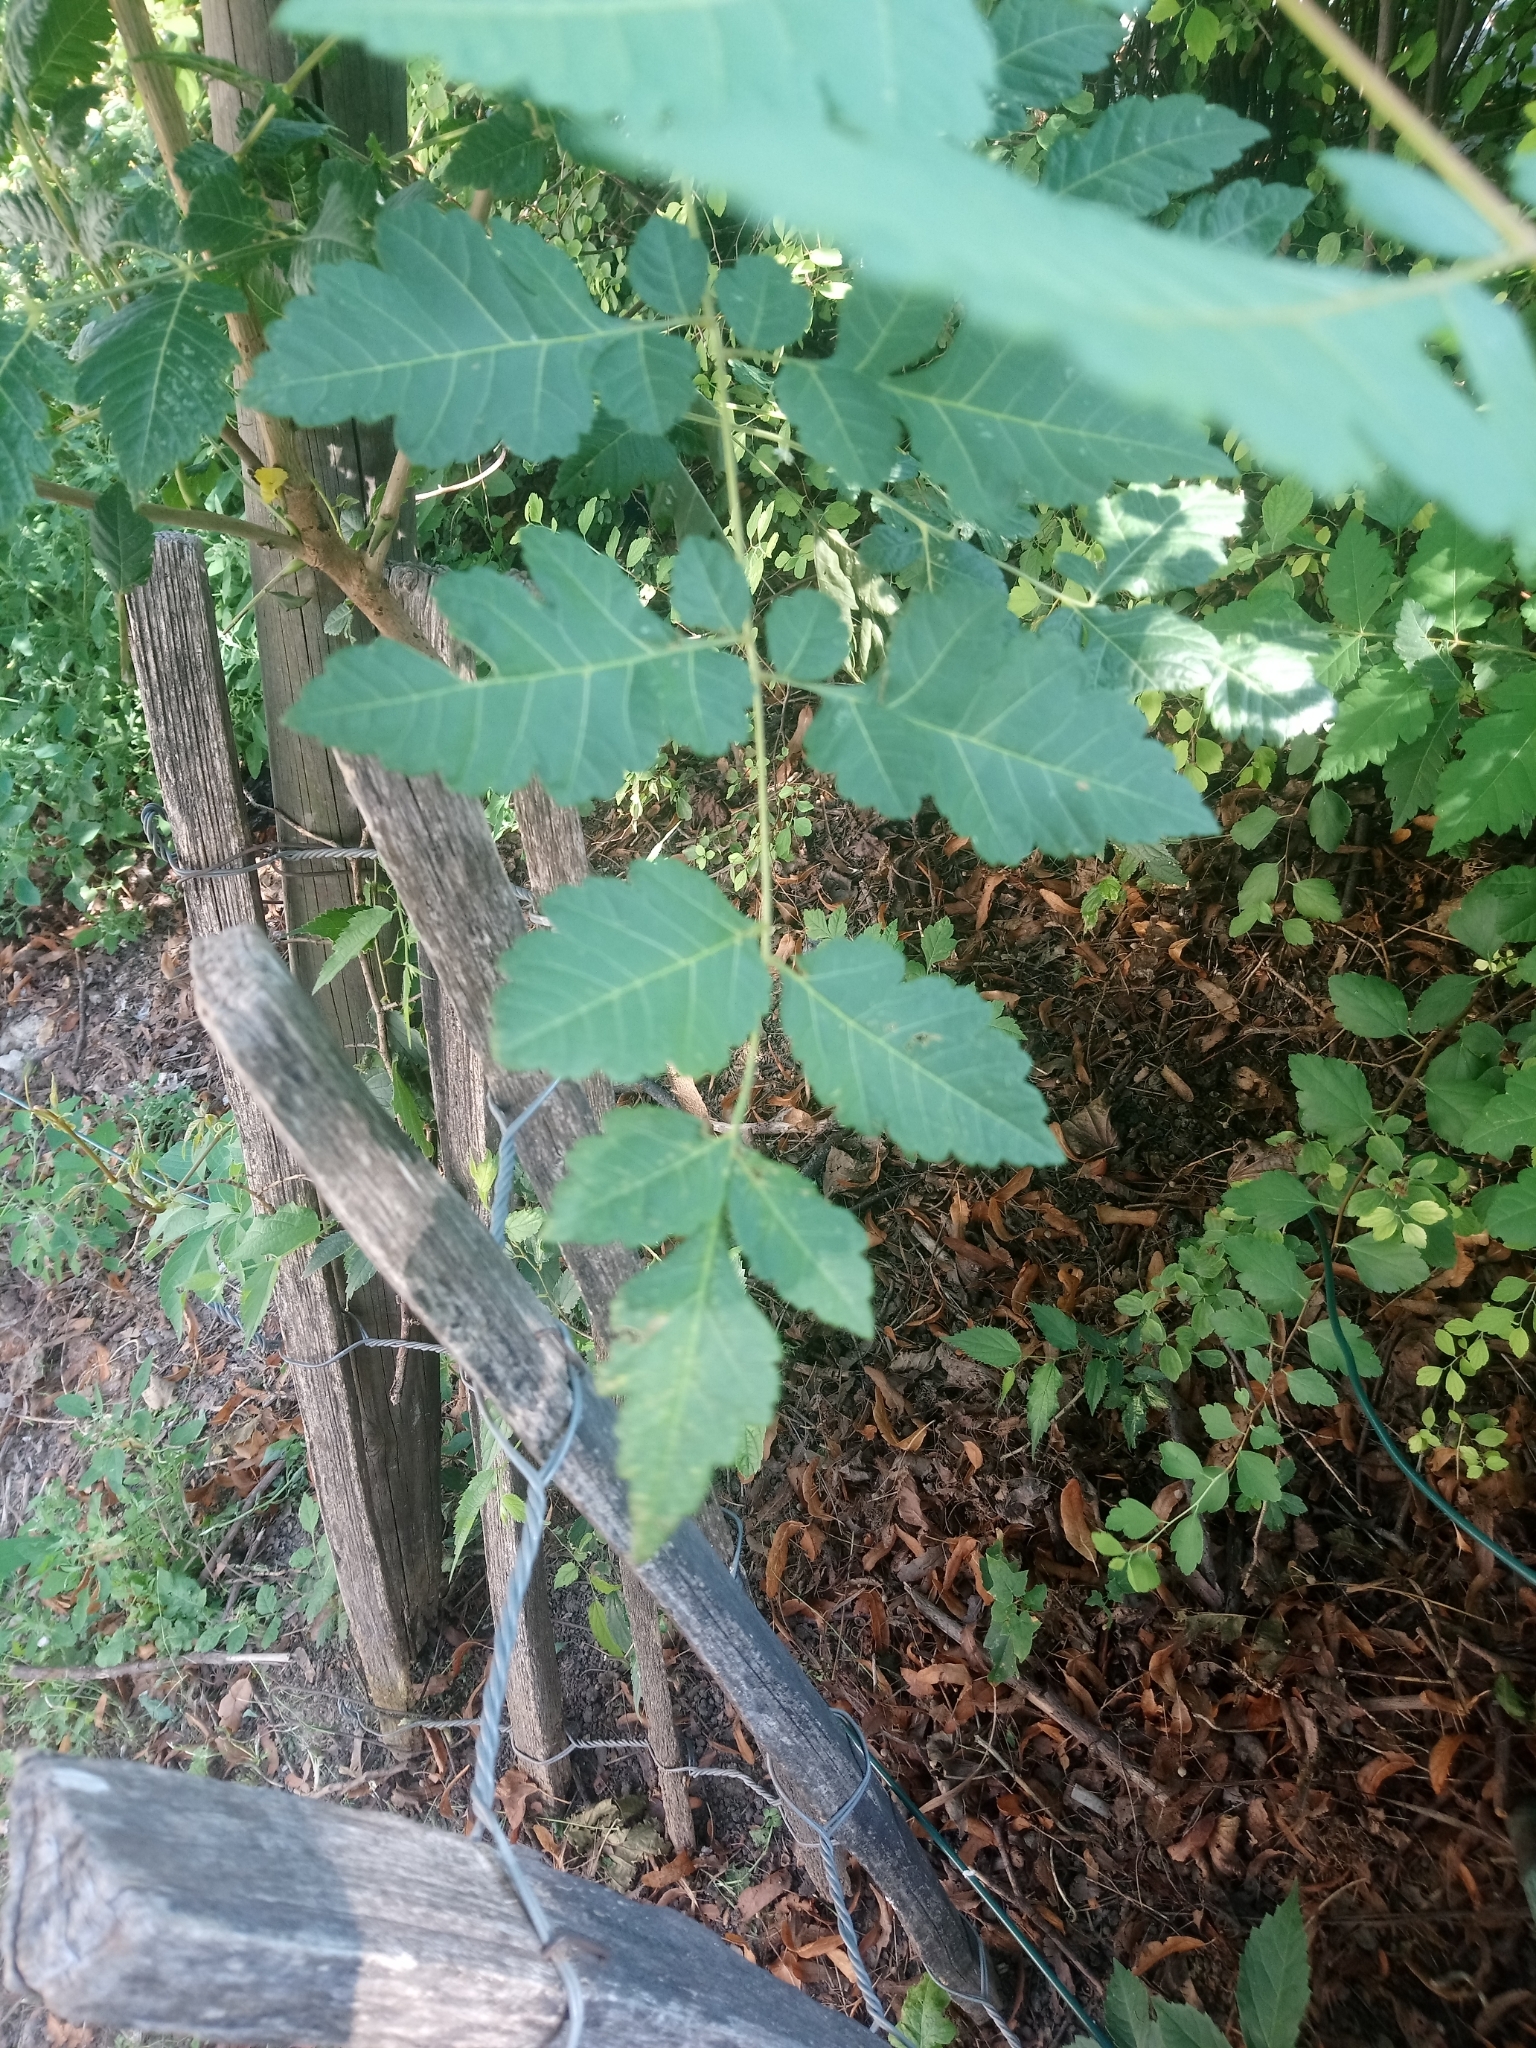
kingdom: Plantae
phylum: Tracheophyta
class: Magnoliopsida
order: Sapindales
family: Sapindaceae
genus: Koelreuteria
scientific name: Koelreuteria paniculata
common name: Pride-of-india
